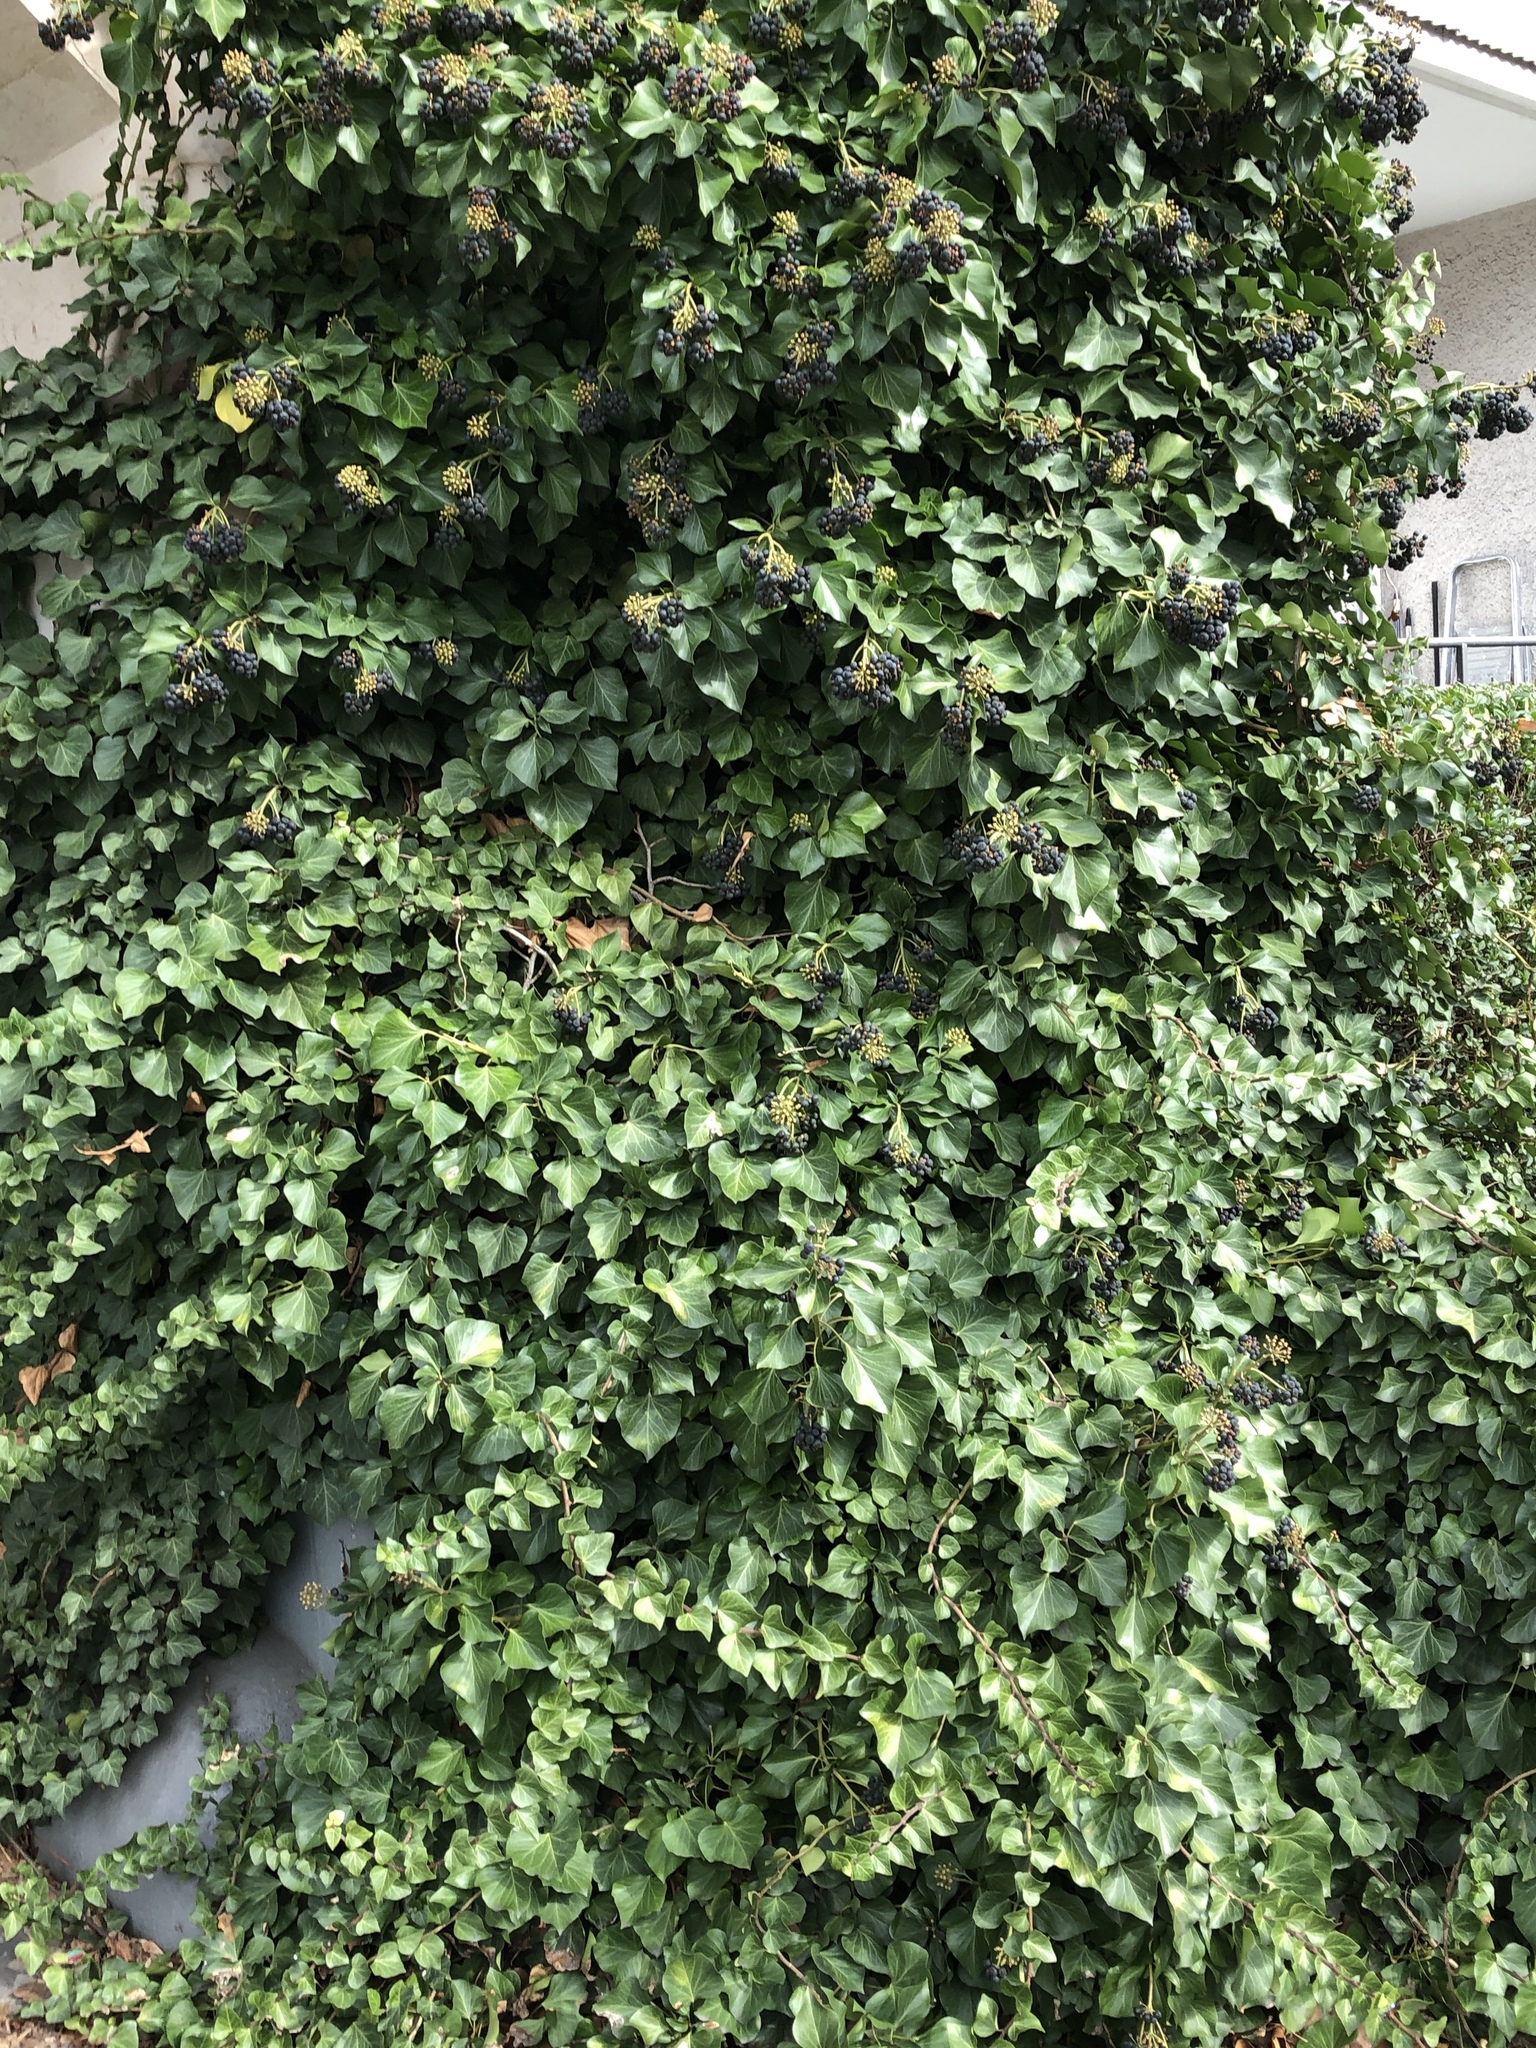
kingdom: Plantae
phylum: Tracheophyta
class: Magnoliopsida
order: Apiales
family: Araliaceae
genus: Hedera
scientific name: Hedera helix
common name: Ivy
